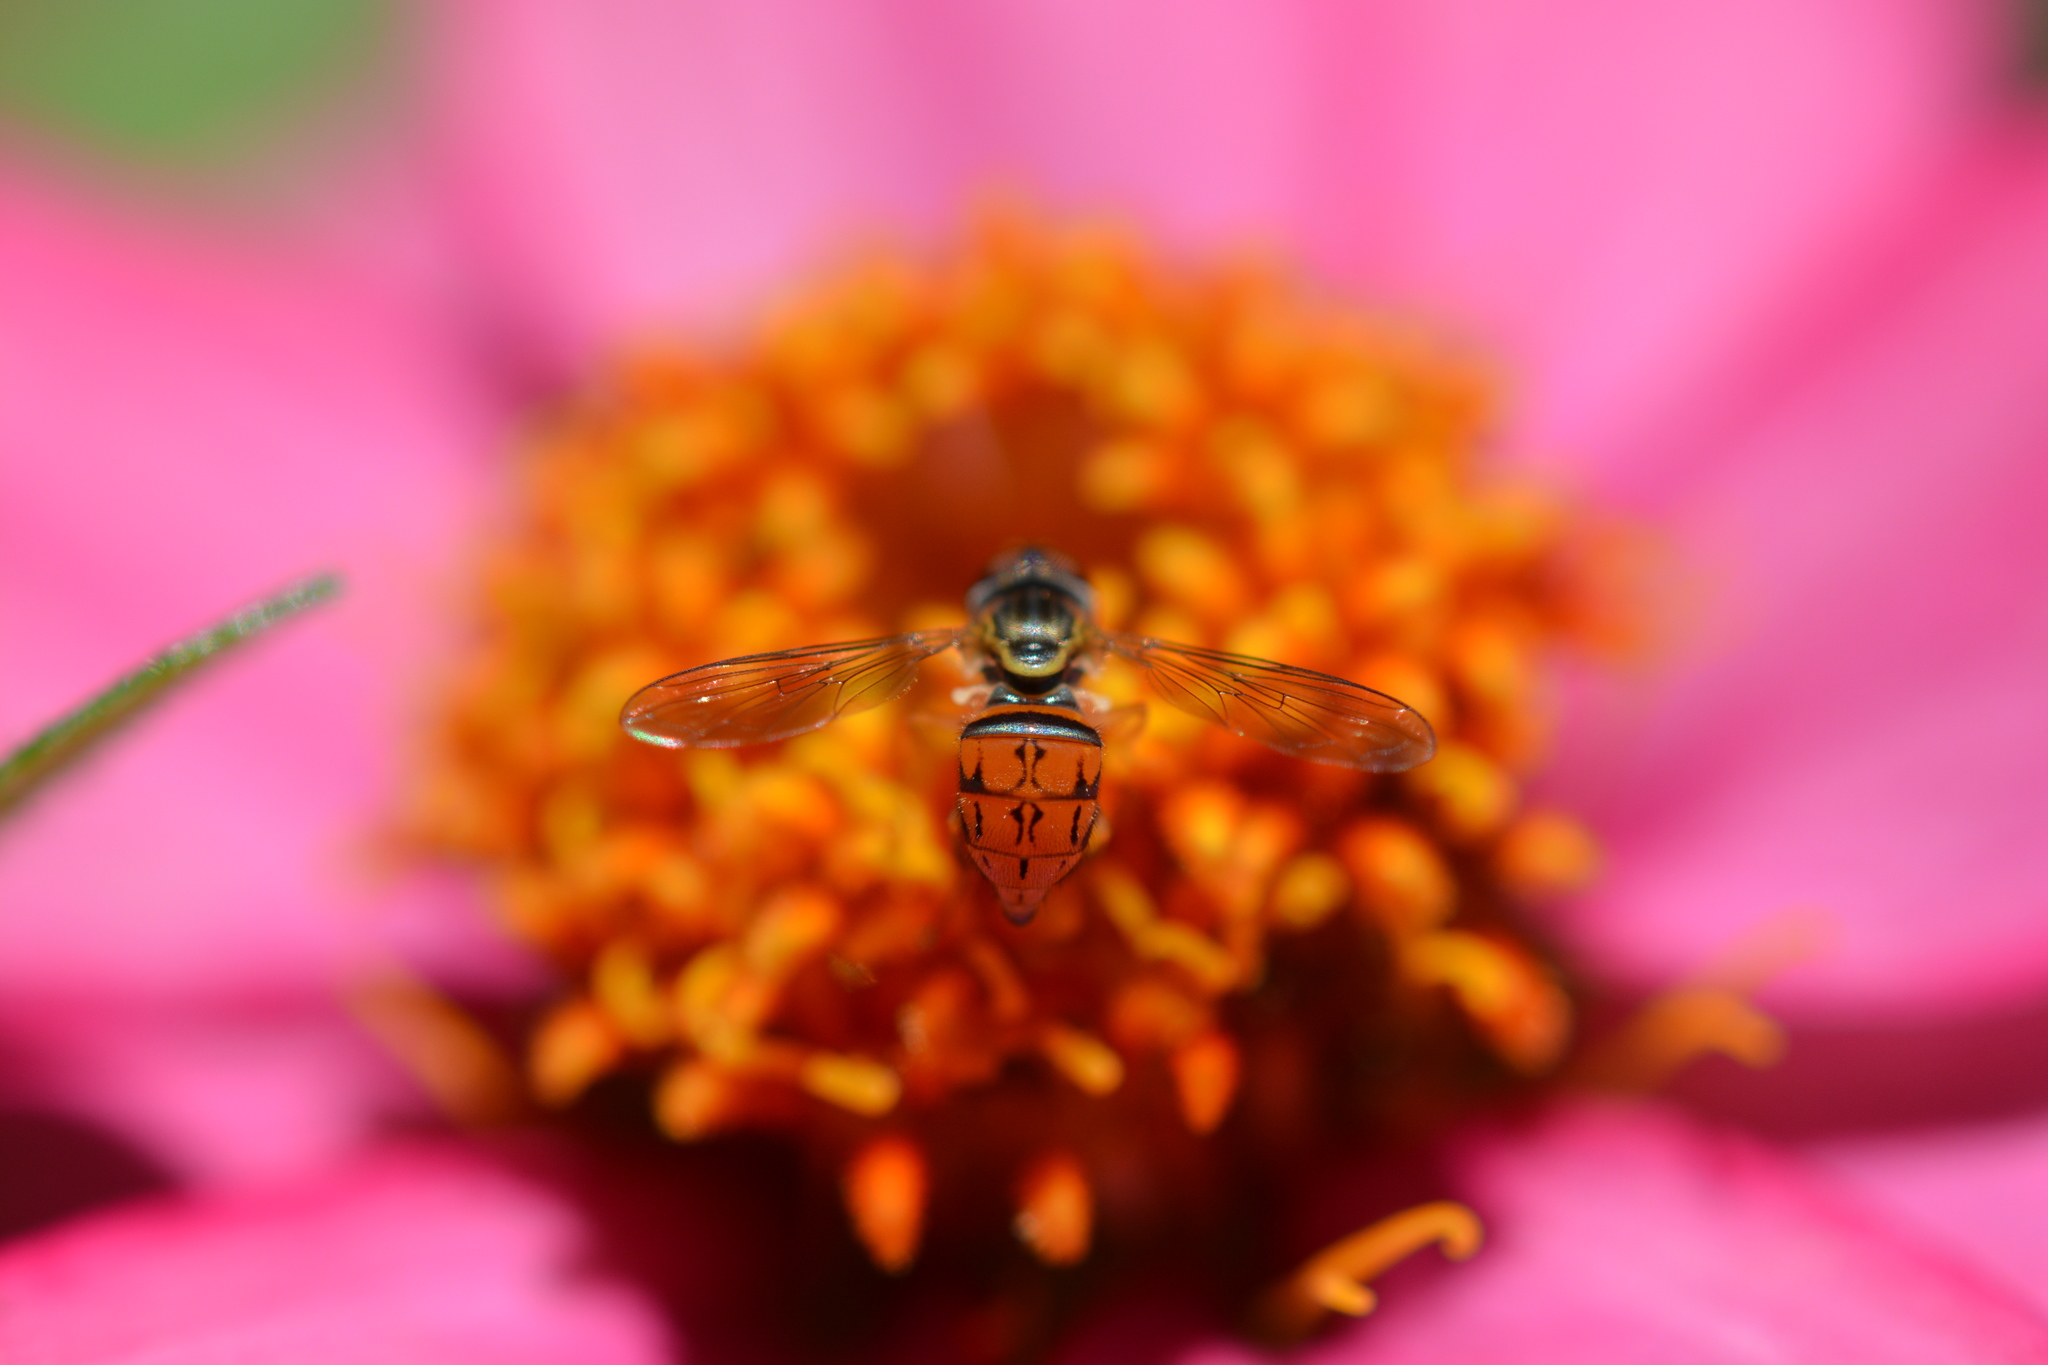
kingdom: Animalia
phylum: Arthropoda
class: Insecta
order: Diptera
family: Syrphidae
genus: Toxomerus
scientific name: Toxomerus boscii
